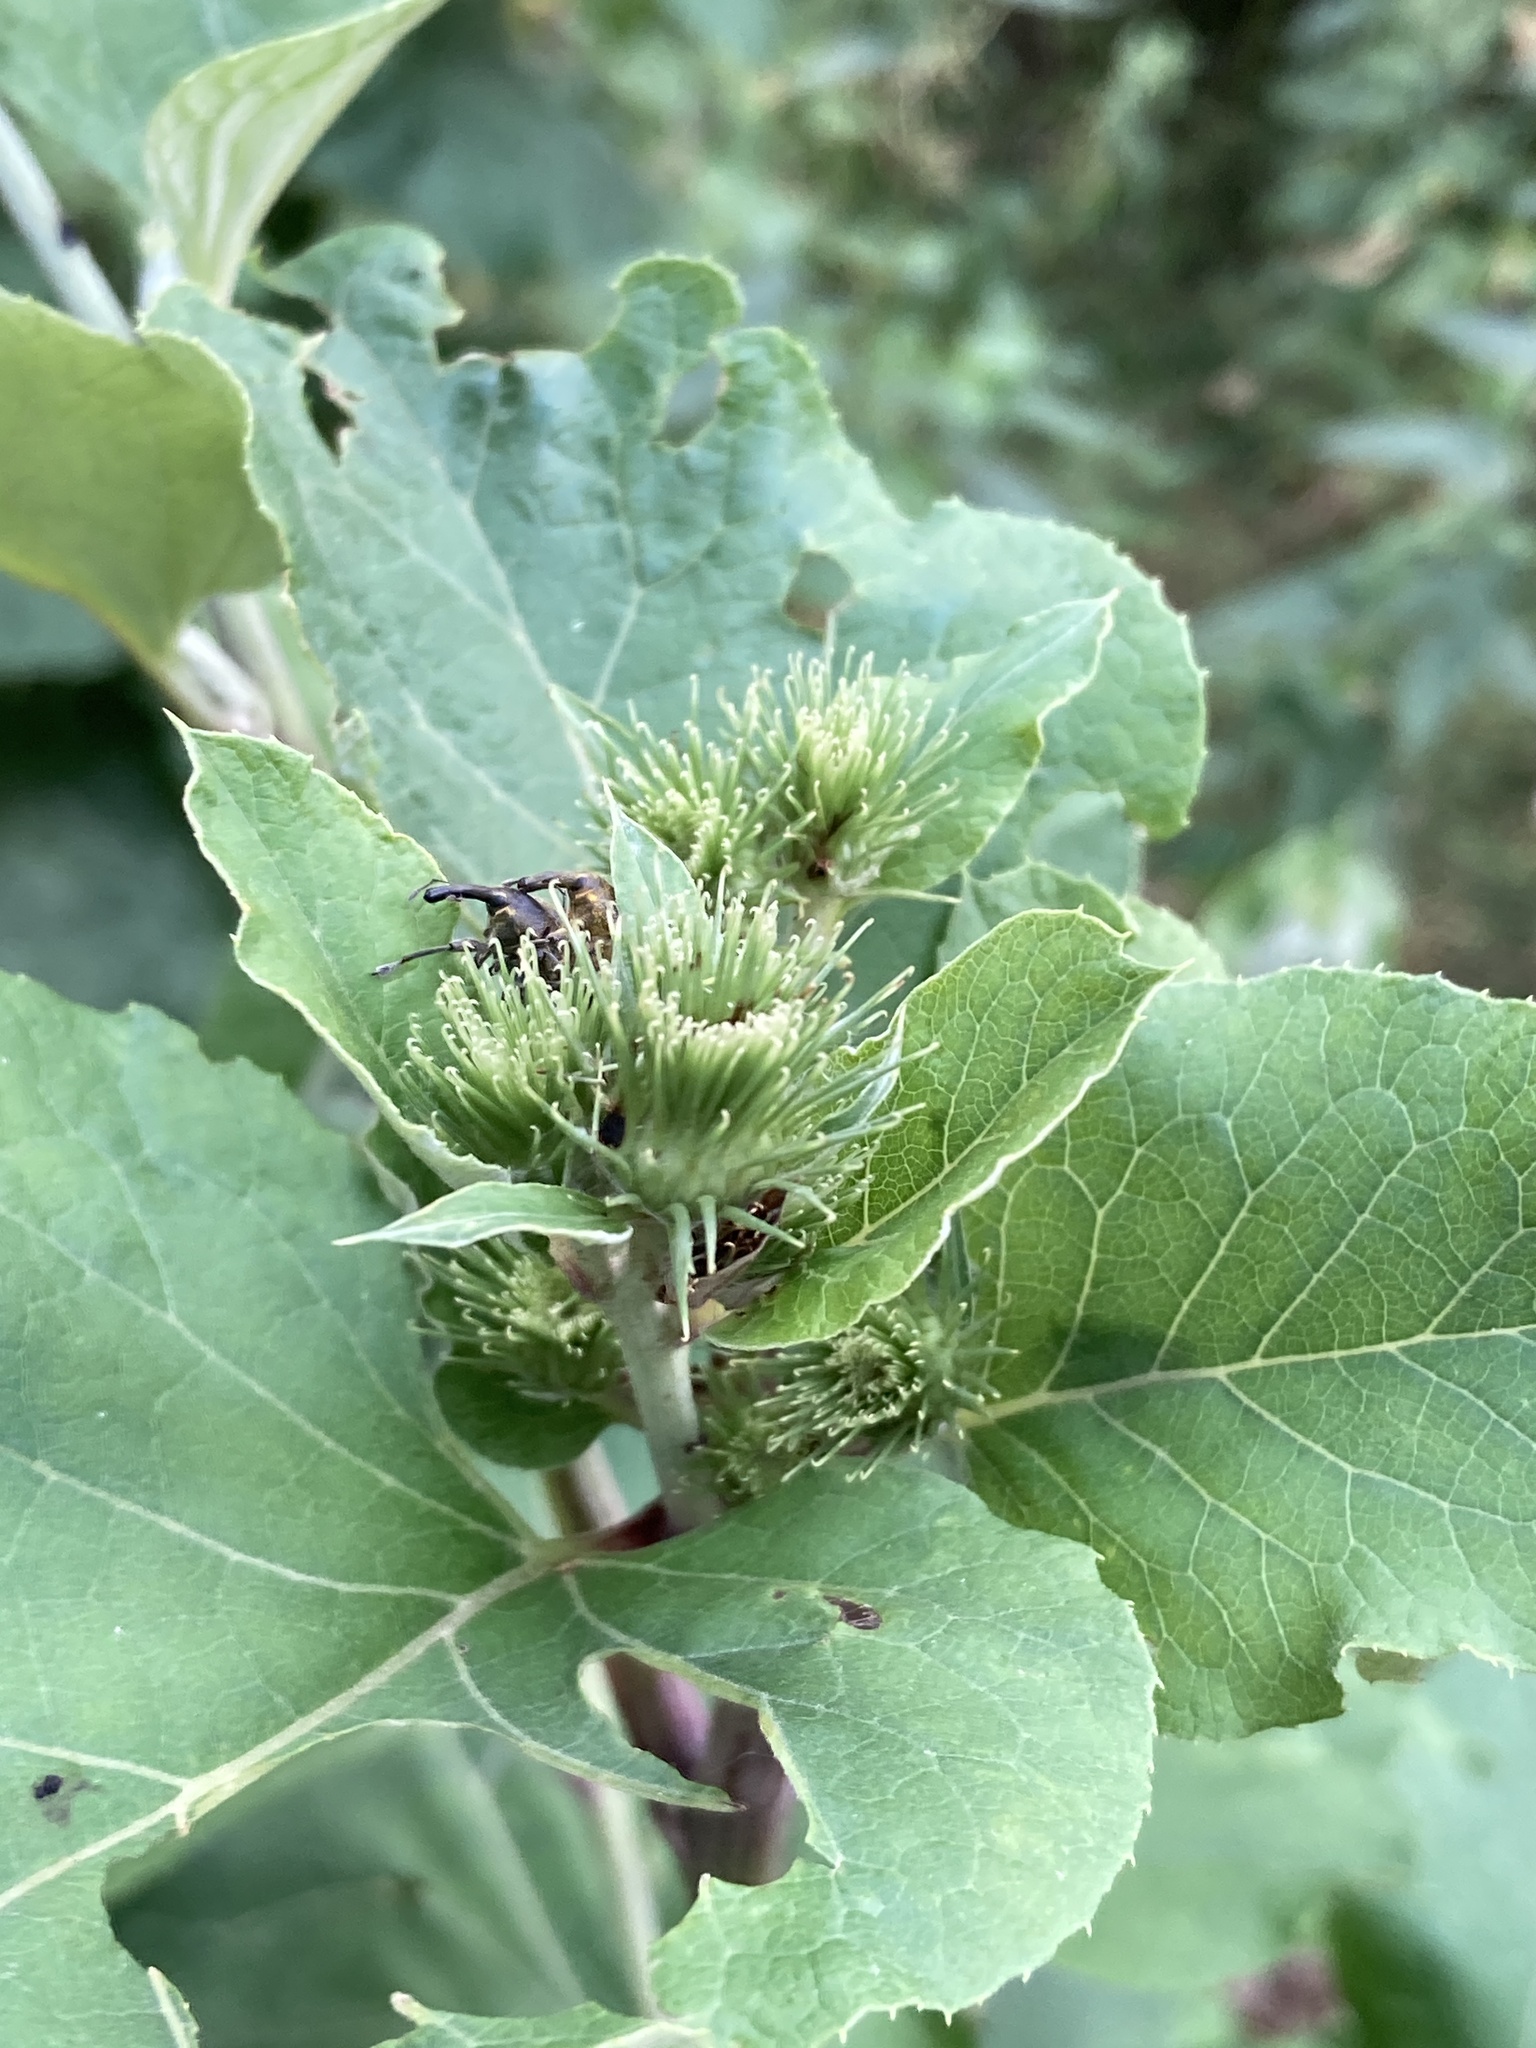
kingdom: Plantae
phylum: Tracheophyta
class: Magnoliopsida
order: Asterales
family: Asteraceae
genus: Arctium
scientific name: Arctium lappa
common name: Greater burdock
